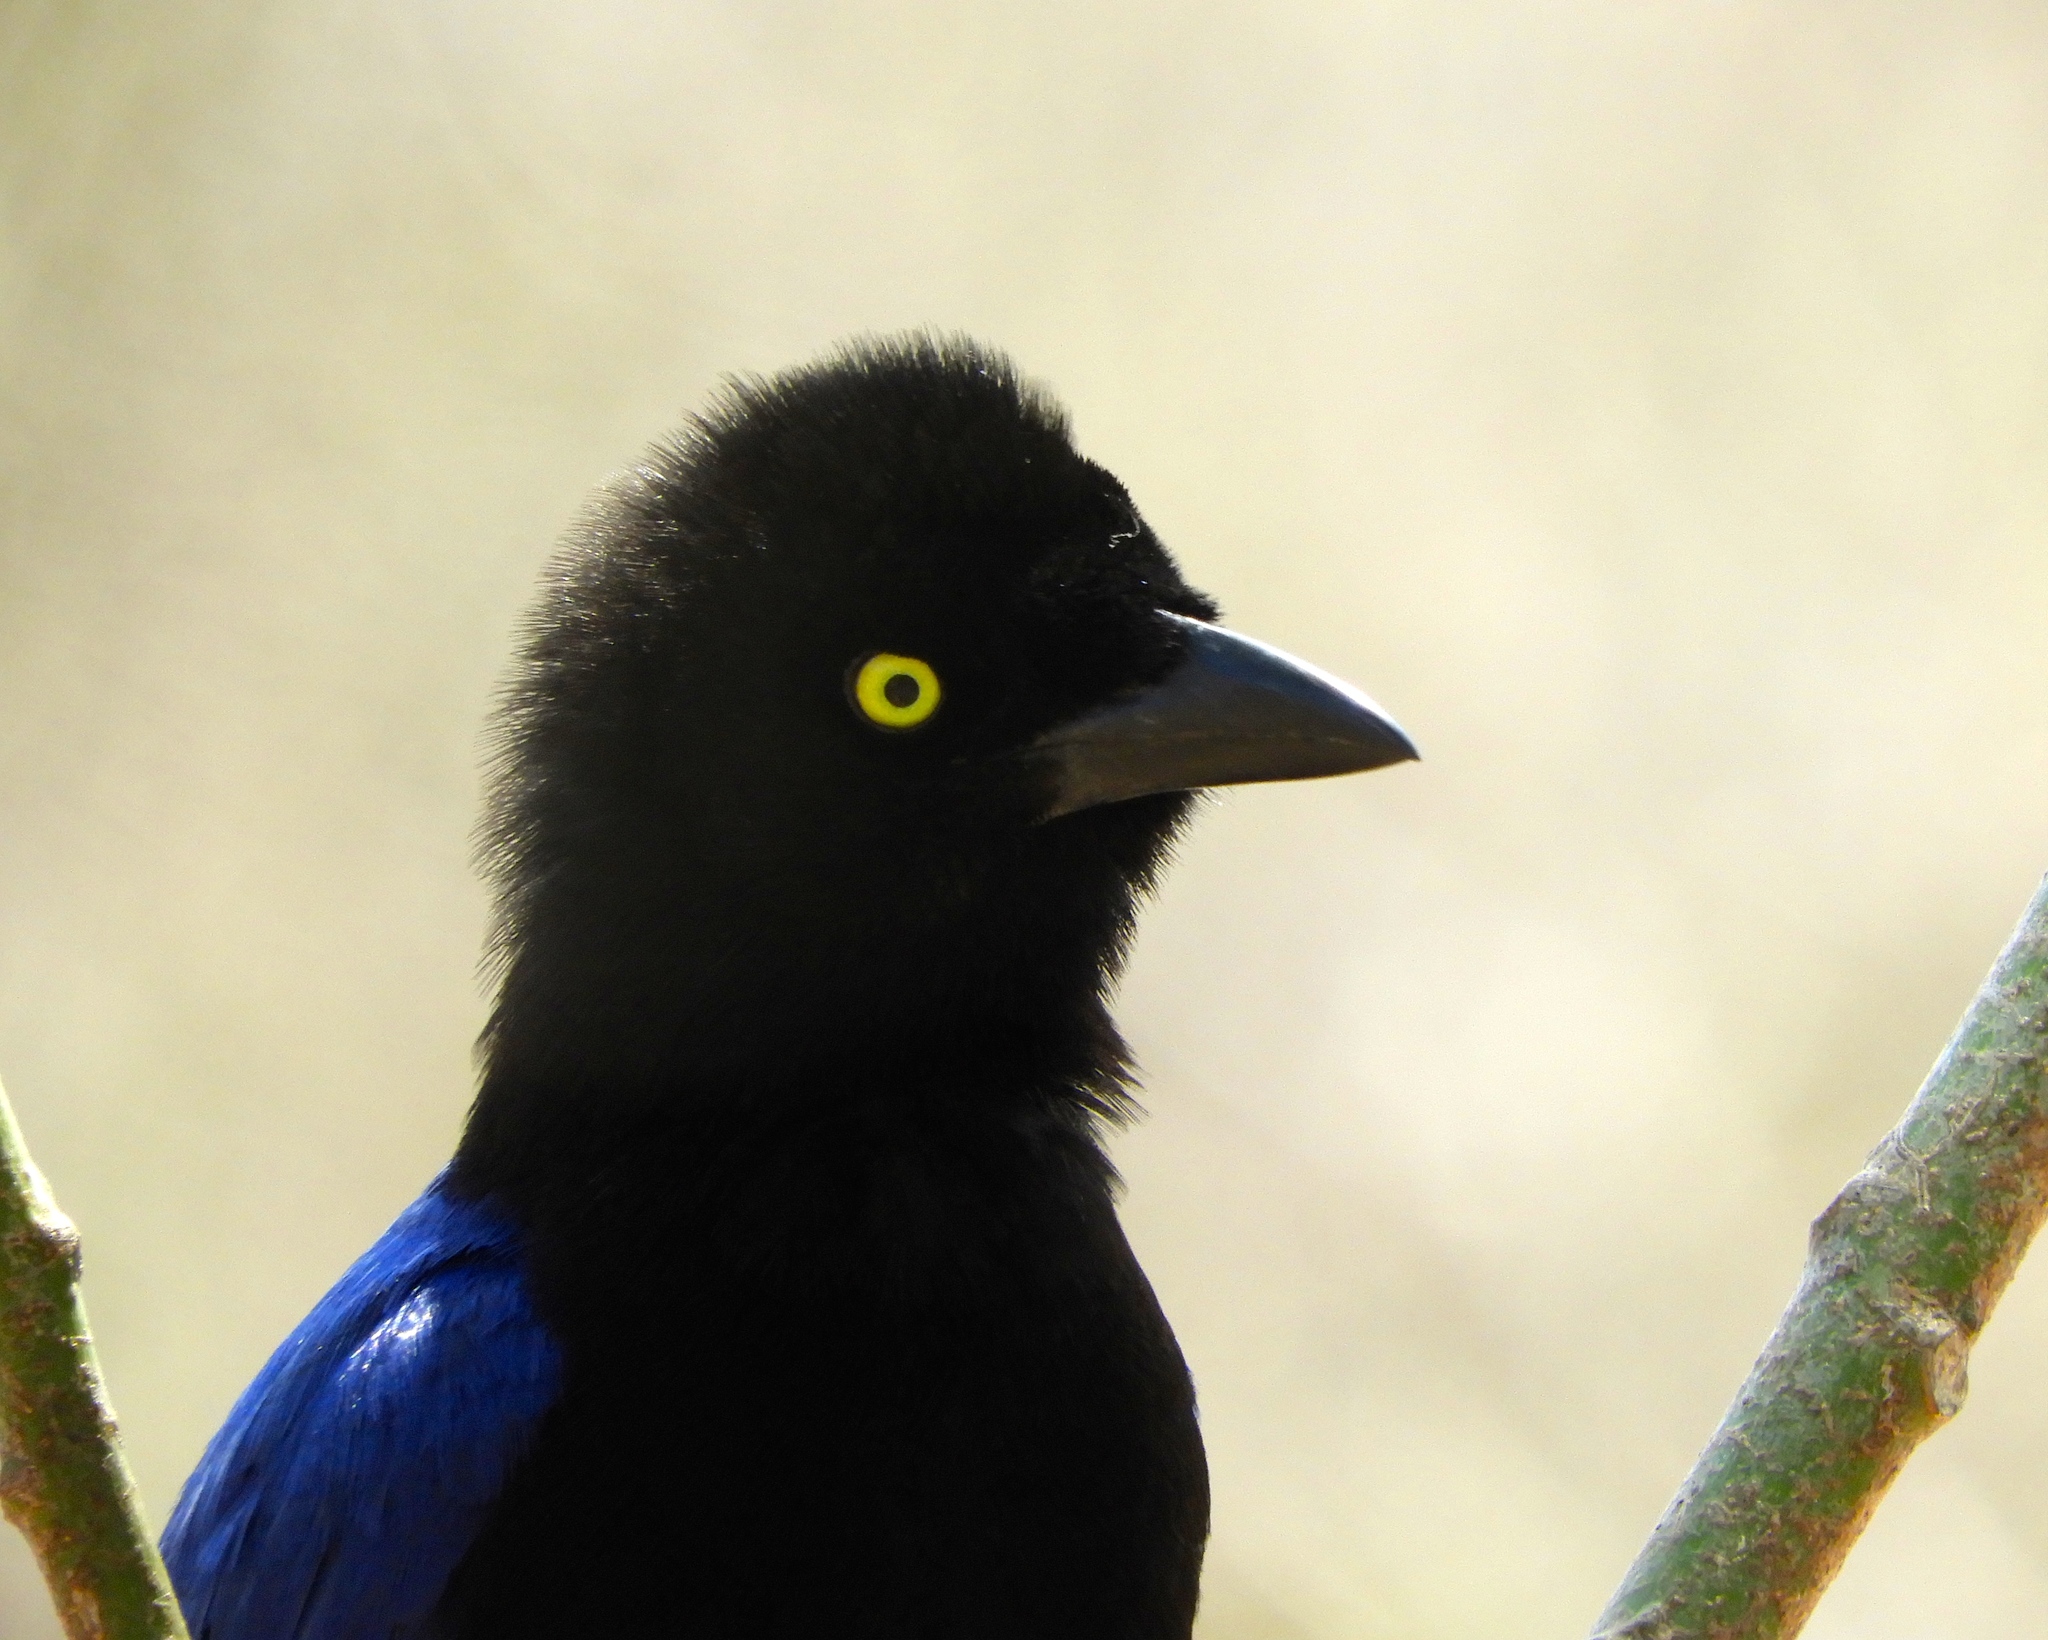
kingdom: Animalia
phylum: Chordata
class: Aves
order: Passeriformes
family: Corvidae
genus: Cyanocorax
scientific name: Cyanocorax beecheii
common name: Purplish-backed jay
